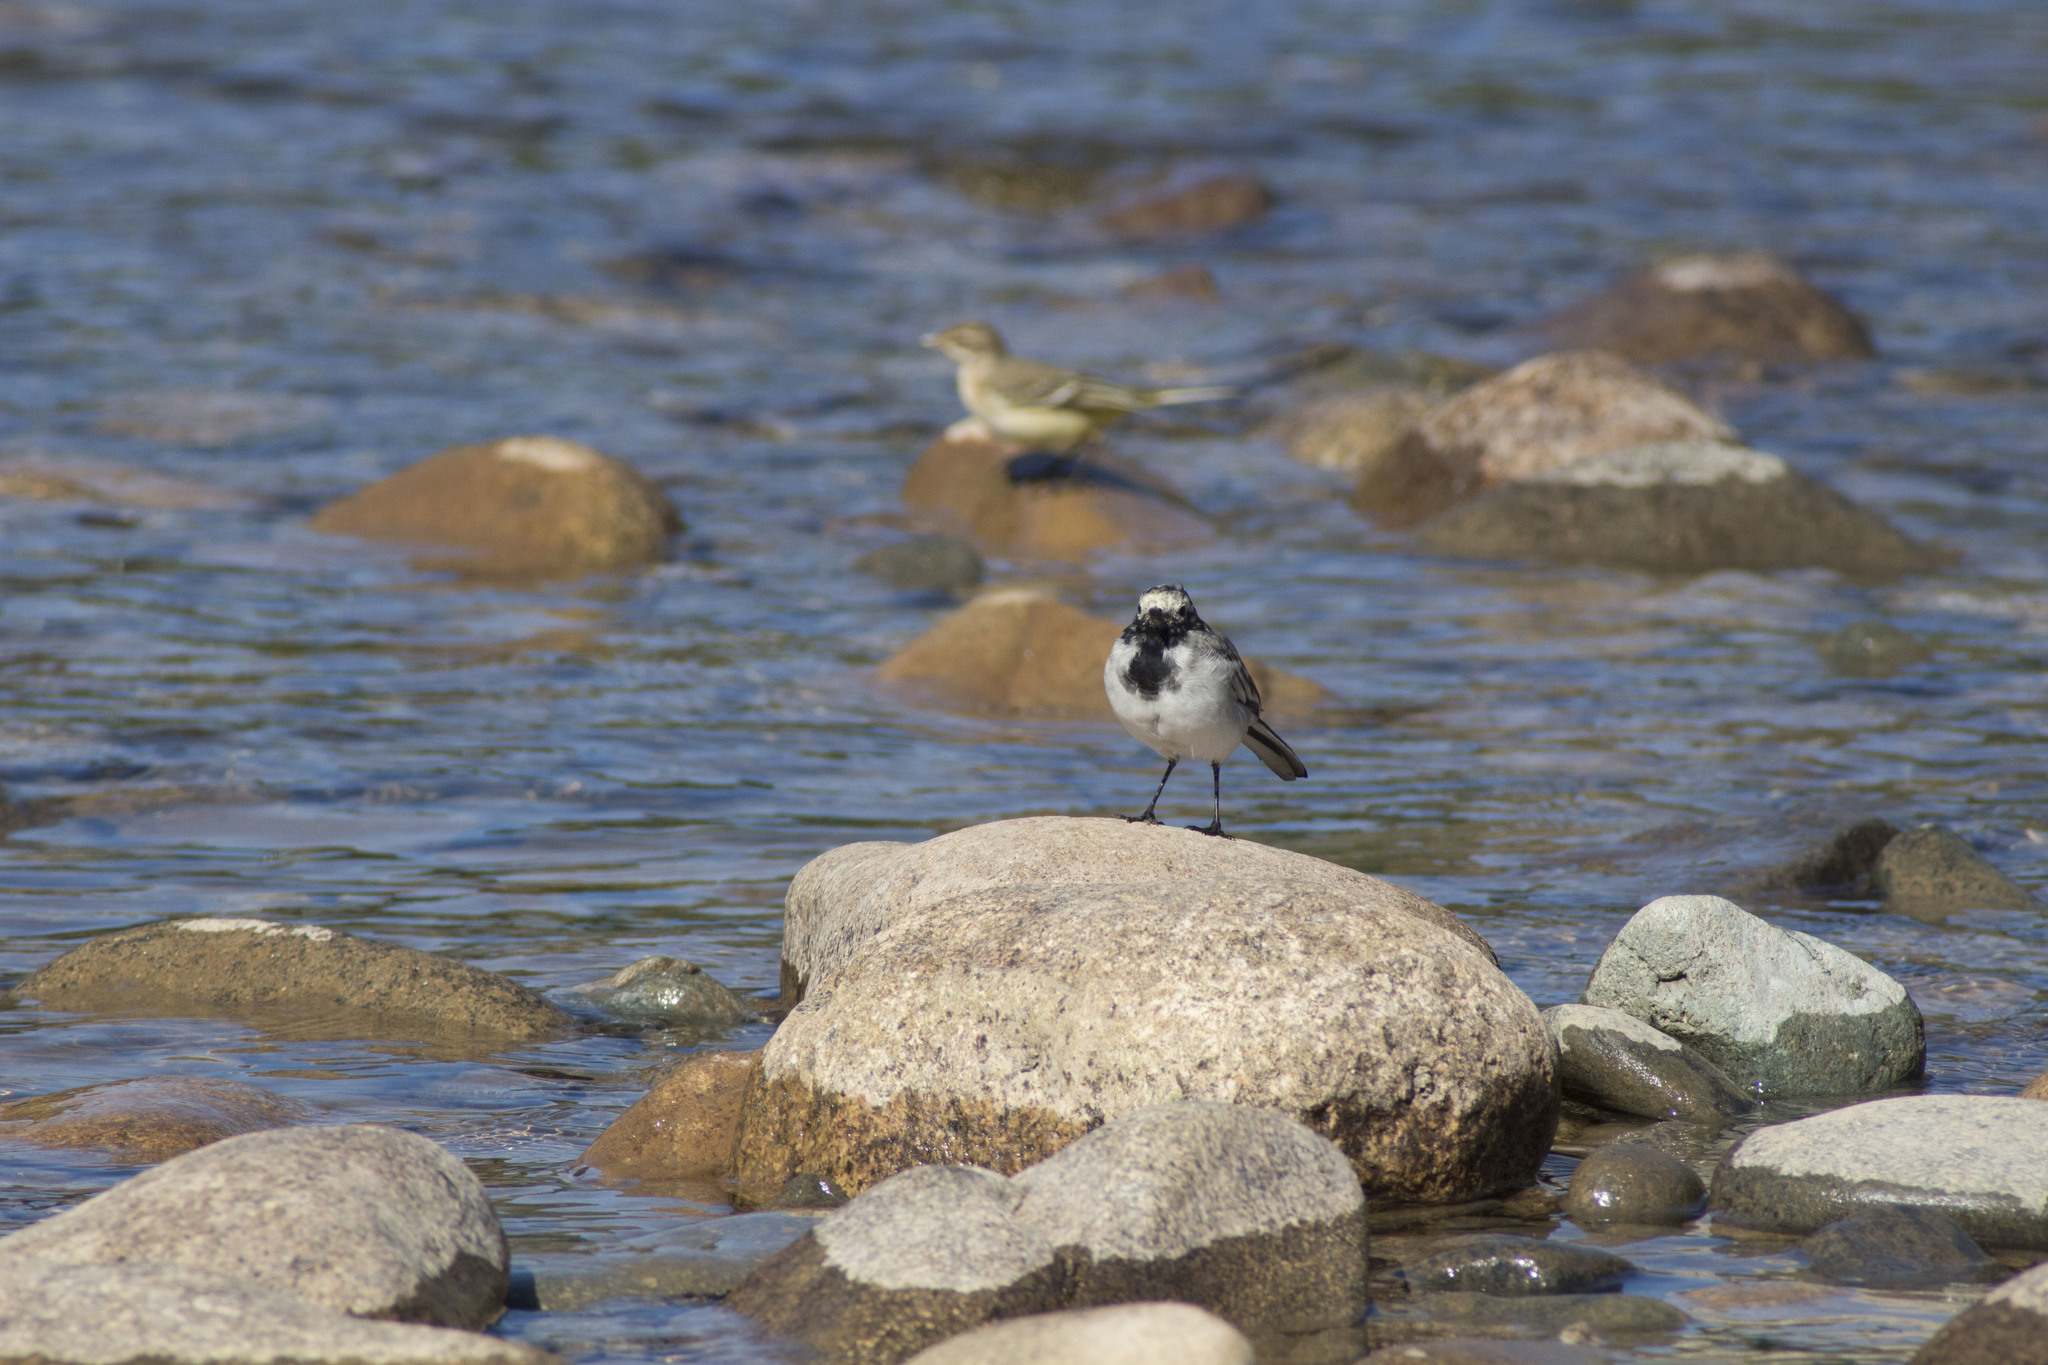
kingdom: Animalia
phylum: Chordata
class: Aves
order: Passeriformes
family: Motacillidae
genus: Motacilla
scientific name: Motacilla alba
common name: White wagtail
